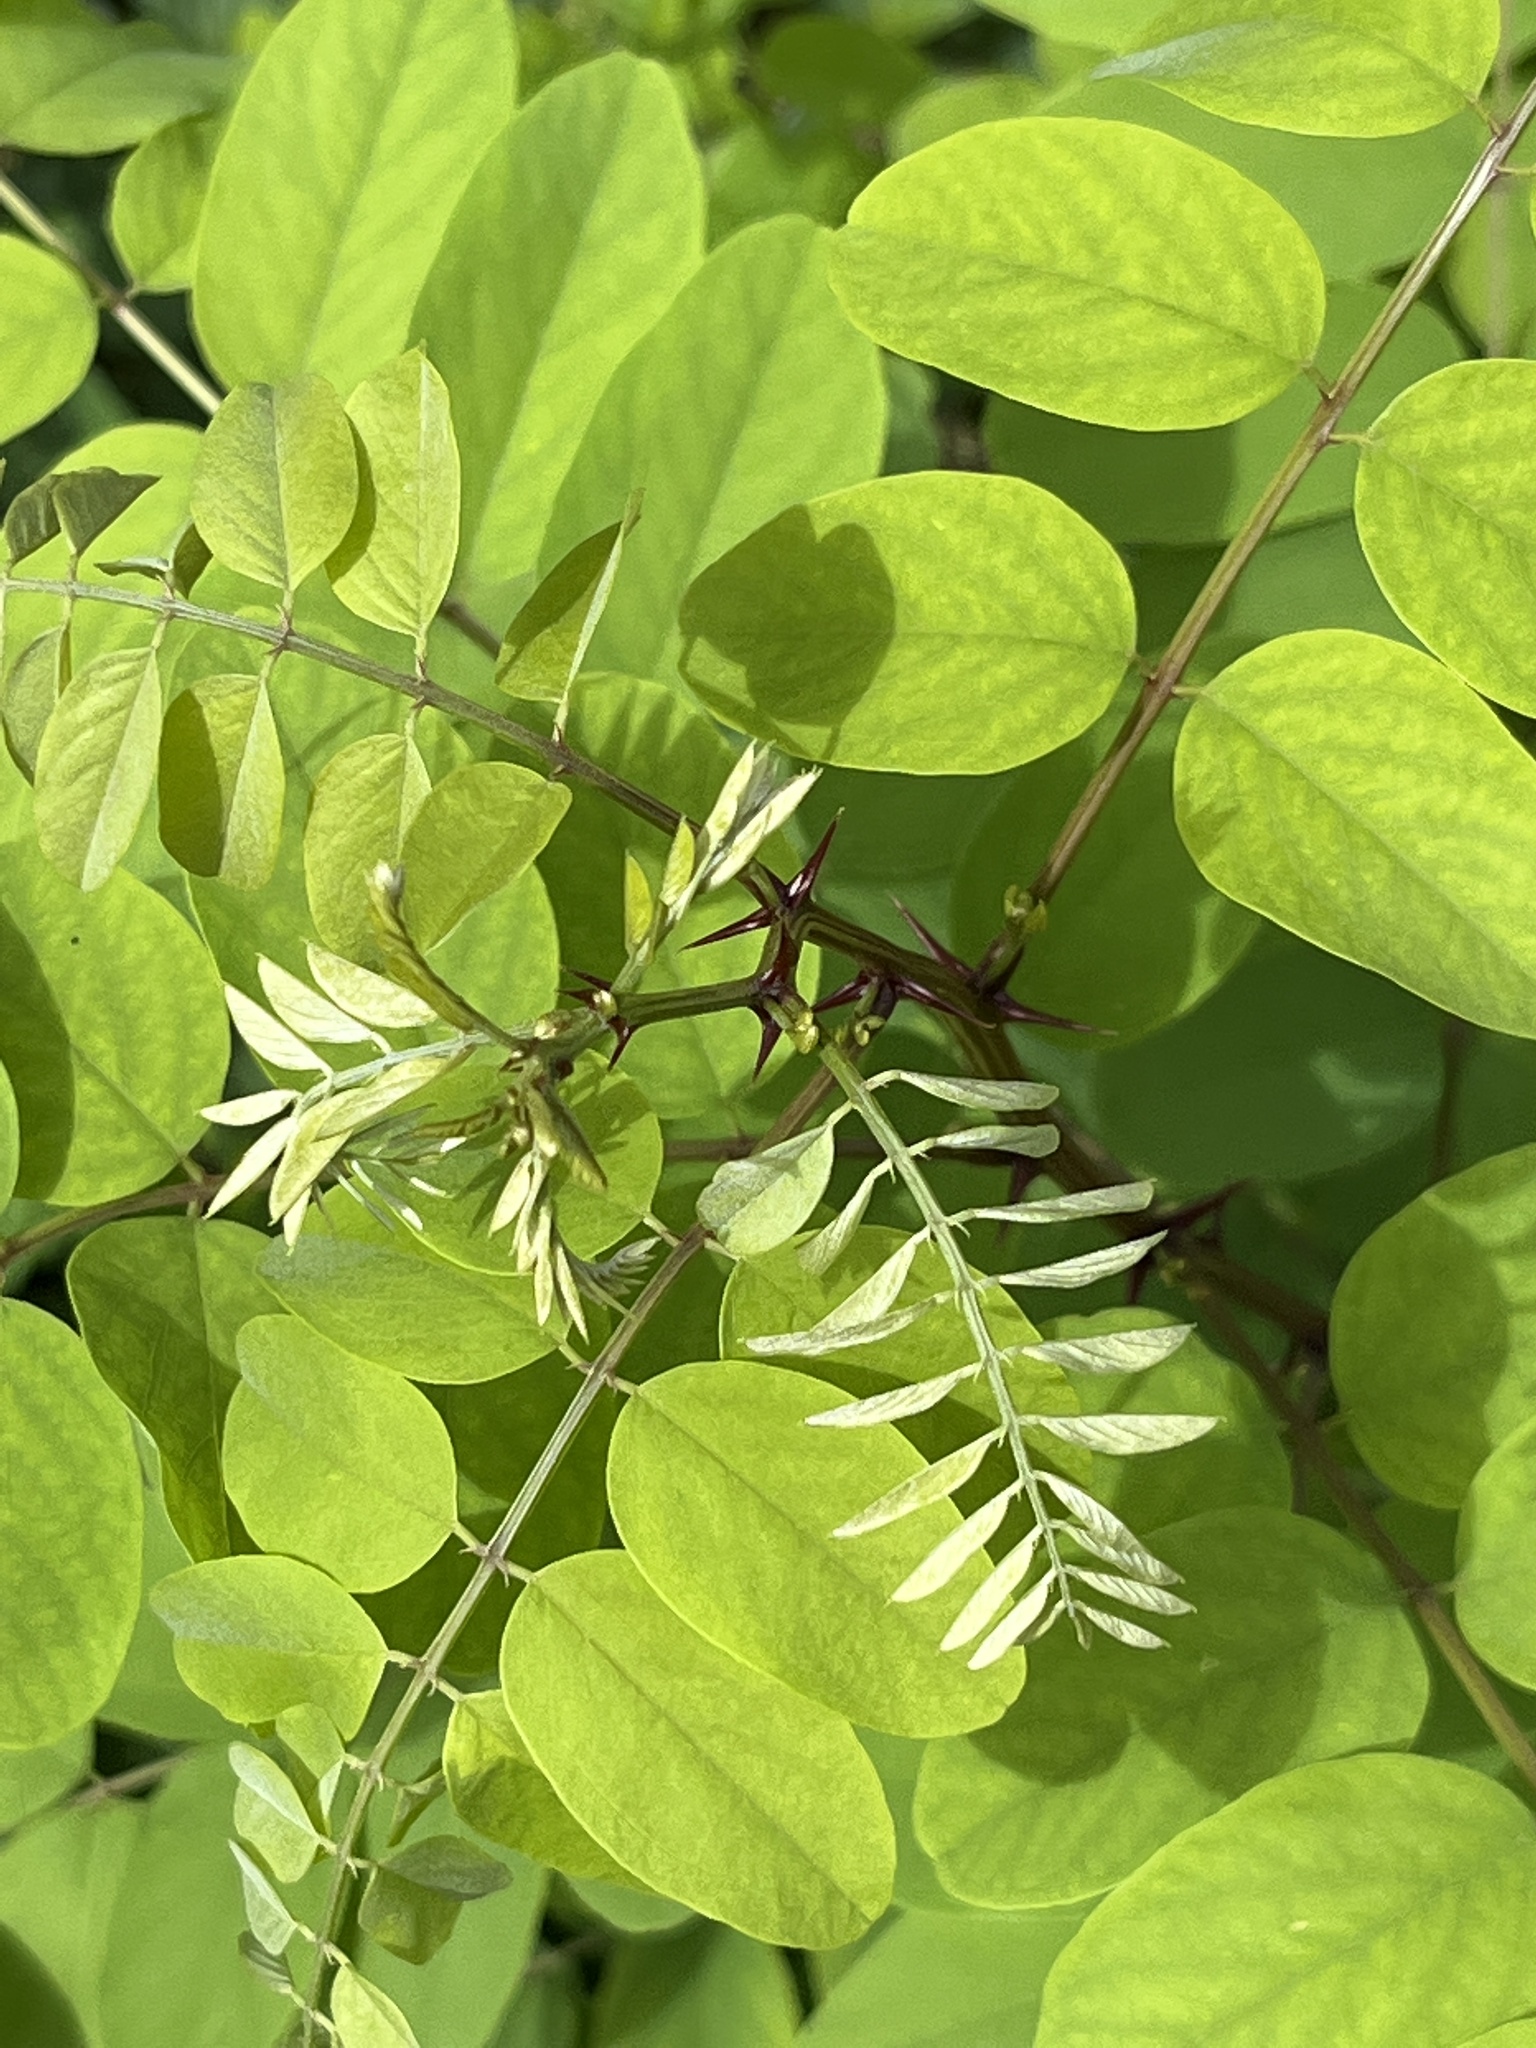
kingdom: Plantae
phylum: Tracheophyta
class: Magnoliopsida
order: Fabales
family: Fabaceae
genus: Robinia
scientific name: Robinia pseudoacacia
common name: Black locust
